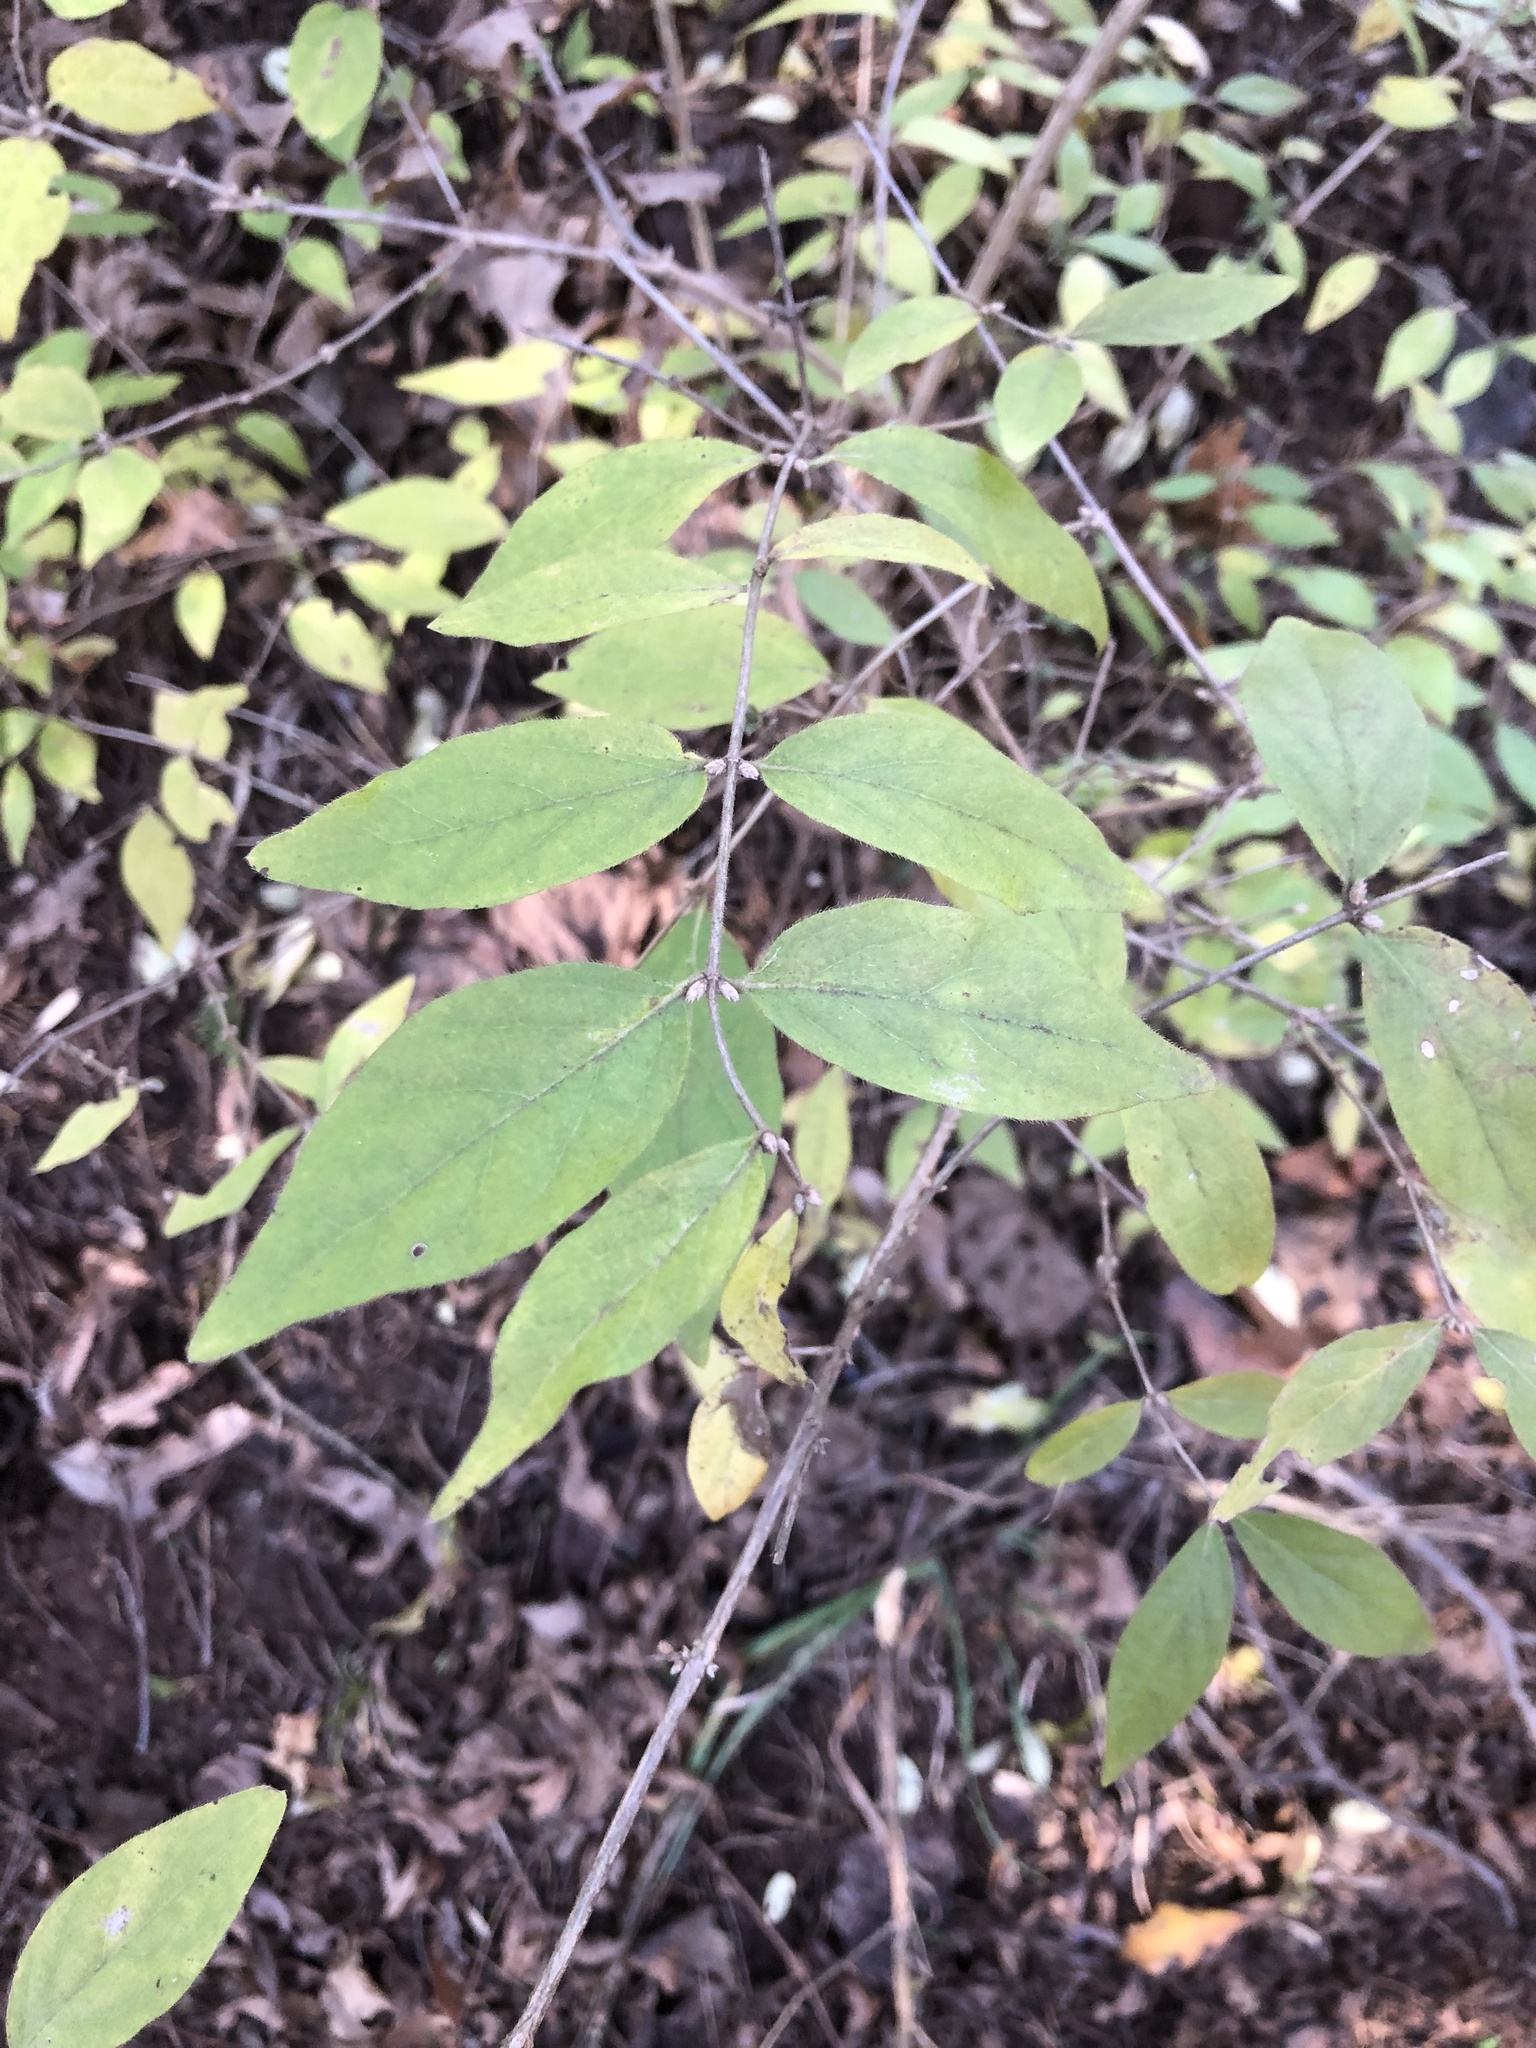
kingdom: Plantae
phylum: Tracheophyta
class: Magnoliopsida
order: Dipsacales
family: Caprifoliaceae
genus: Lonicera
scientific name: Lonicera maackii
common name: Amur honeysuckle
